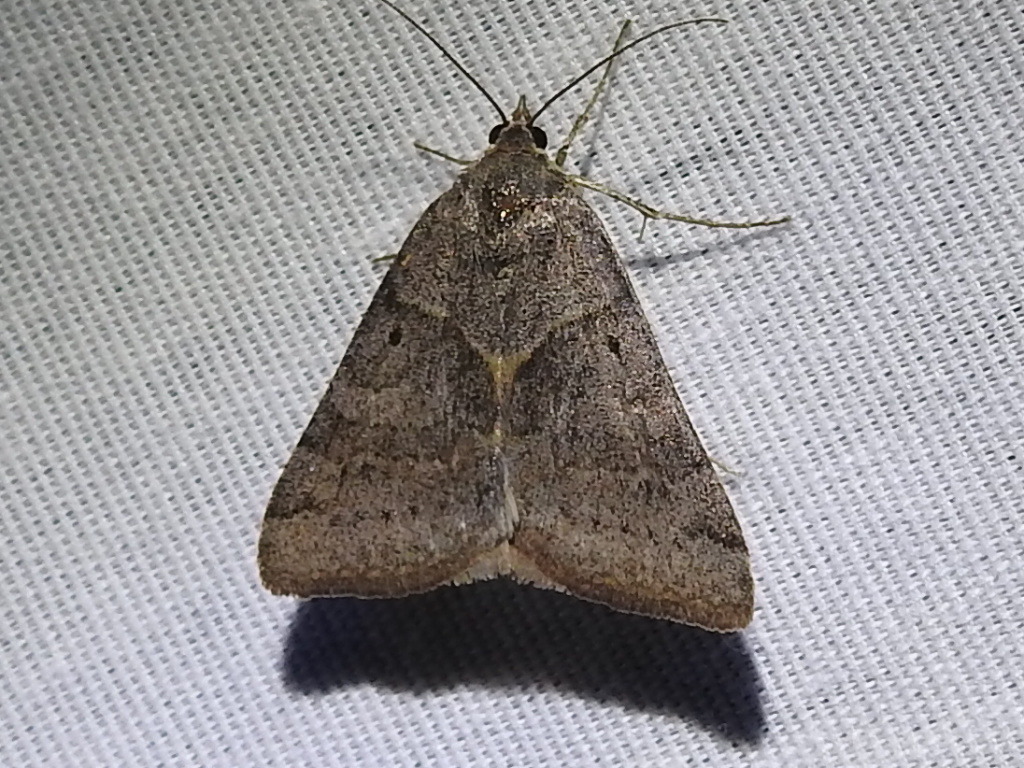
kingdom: Animalia
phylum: Arthropoda
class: Insecta
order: Lepidoptera
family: Erebidae
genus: Caenurgina
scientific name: Caenurgina erechtea
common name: Forage looper moth
